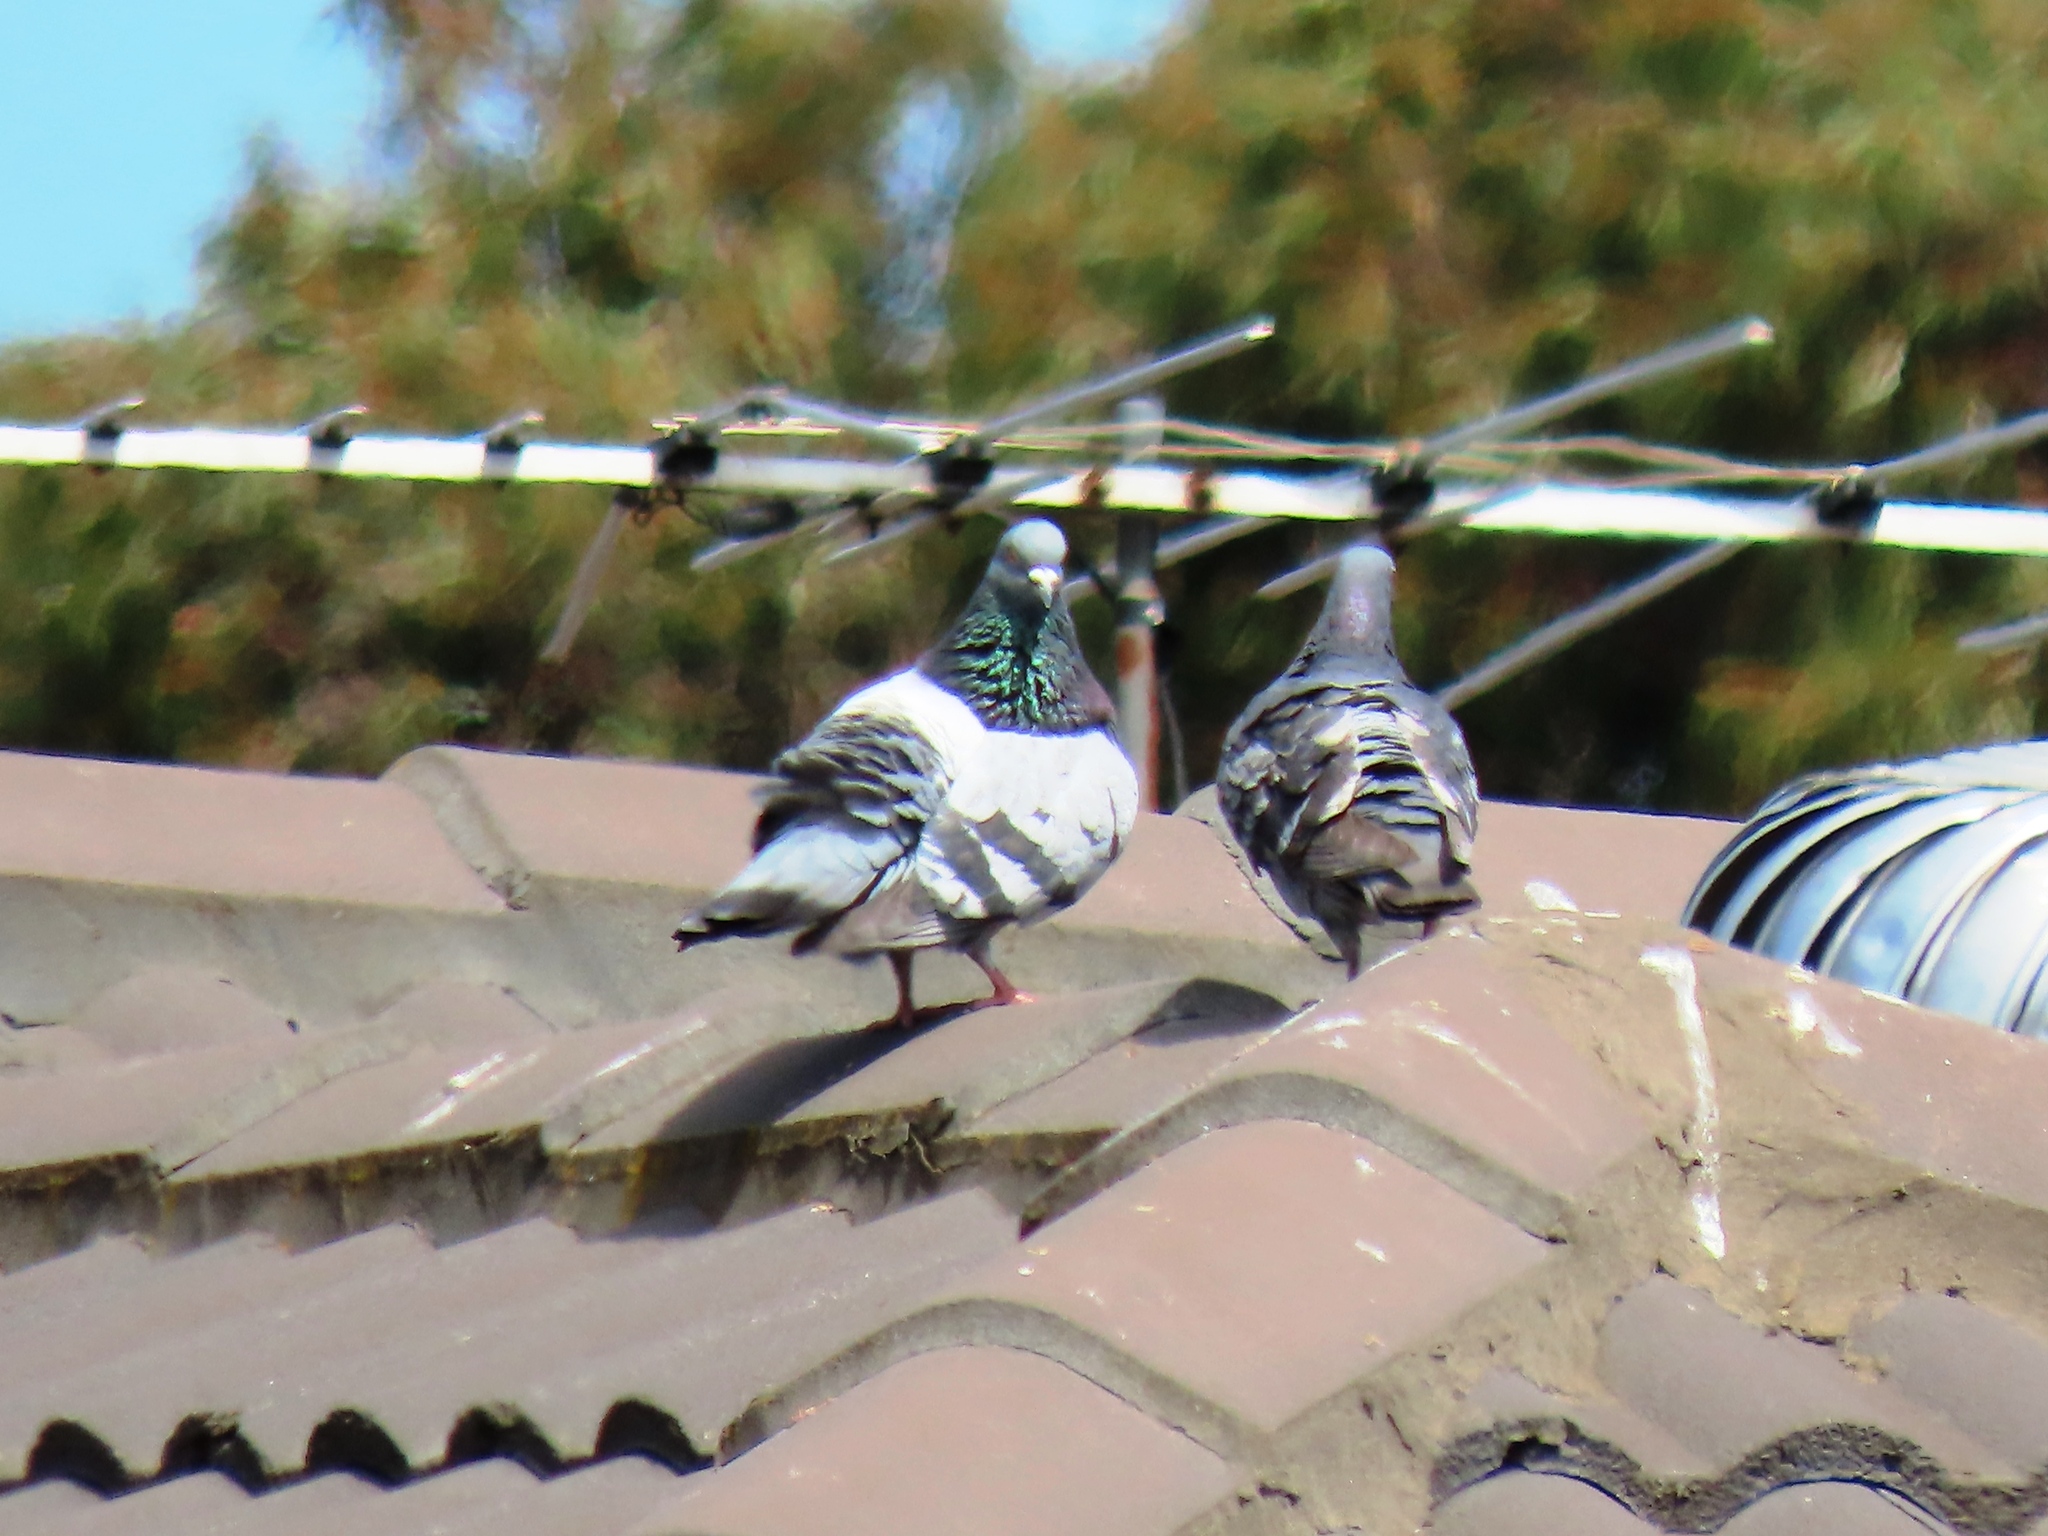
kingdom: Animalia
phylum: Chordata
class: Aves
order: Columbiformes
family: Columbidae
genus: Columba
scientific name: Columba livia
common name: Rock pigeon
